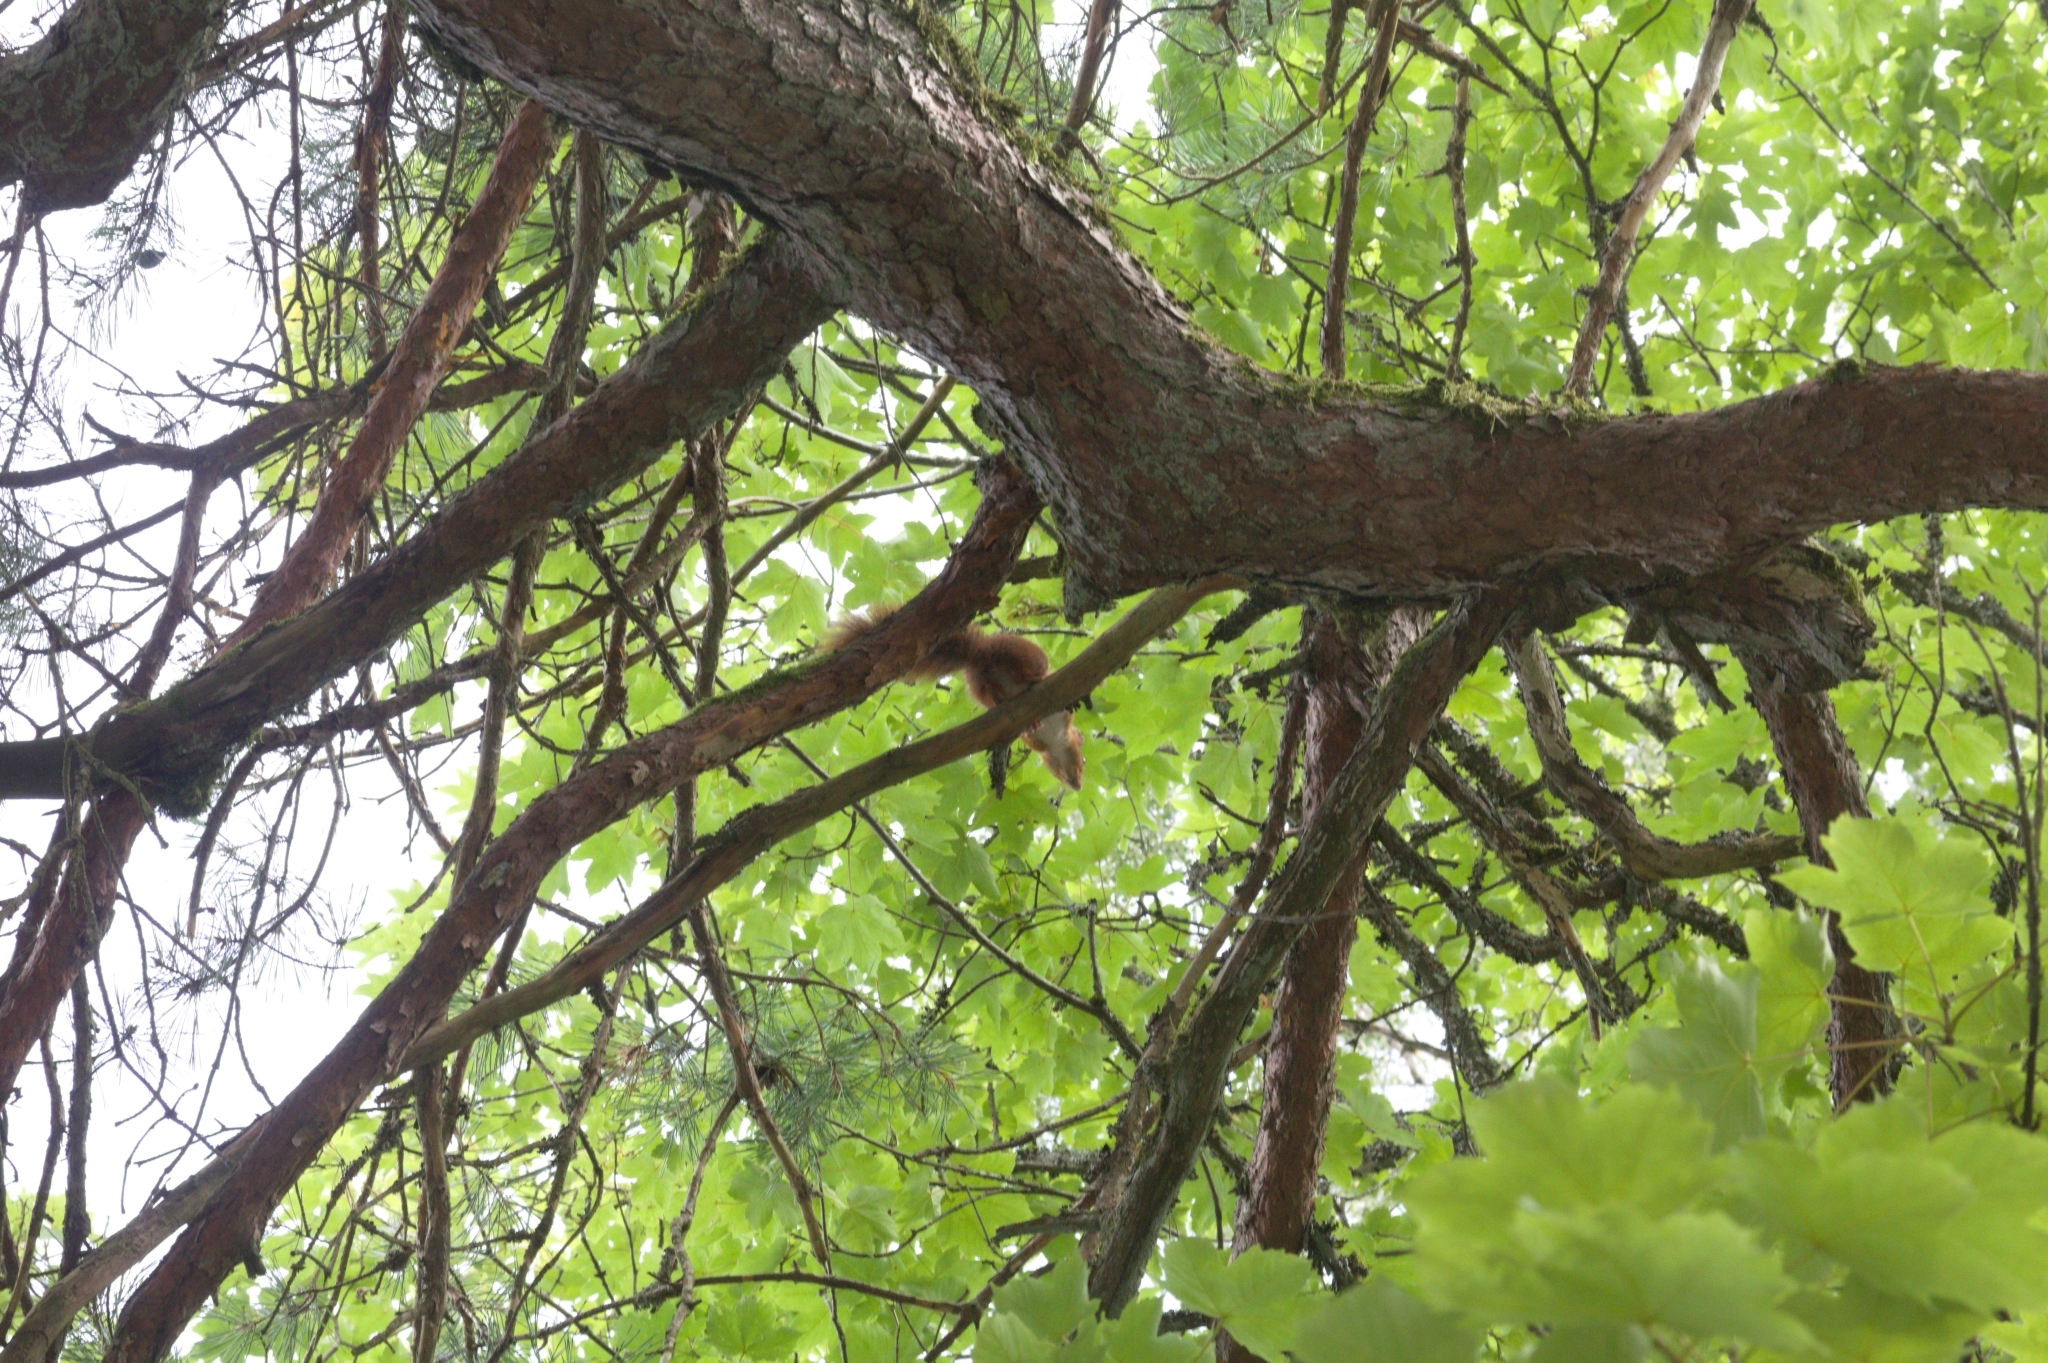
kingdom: Animalia
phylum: Chordata
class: Mammalia
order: Rodentia
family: Sciuridae
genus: Sciurus
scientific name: Sciurus vulgaris
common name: Eurasian red squirrel
